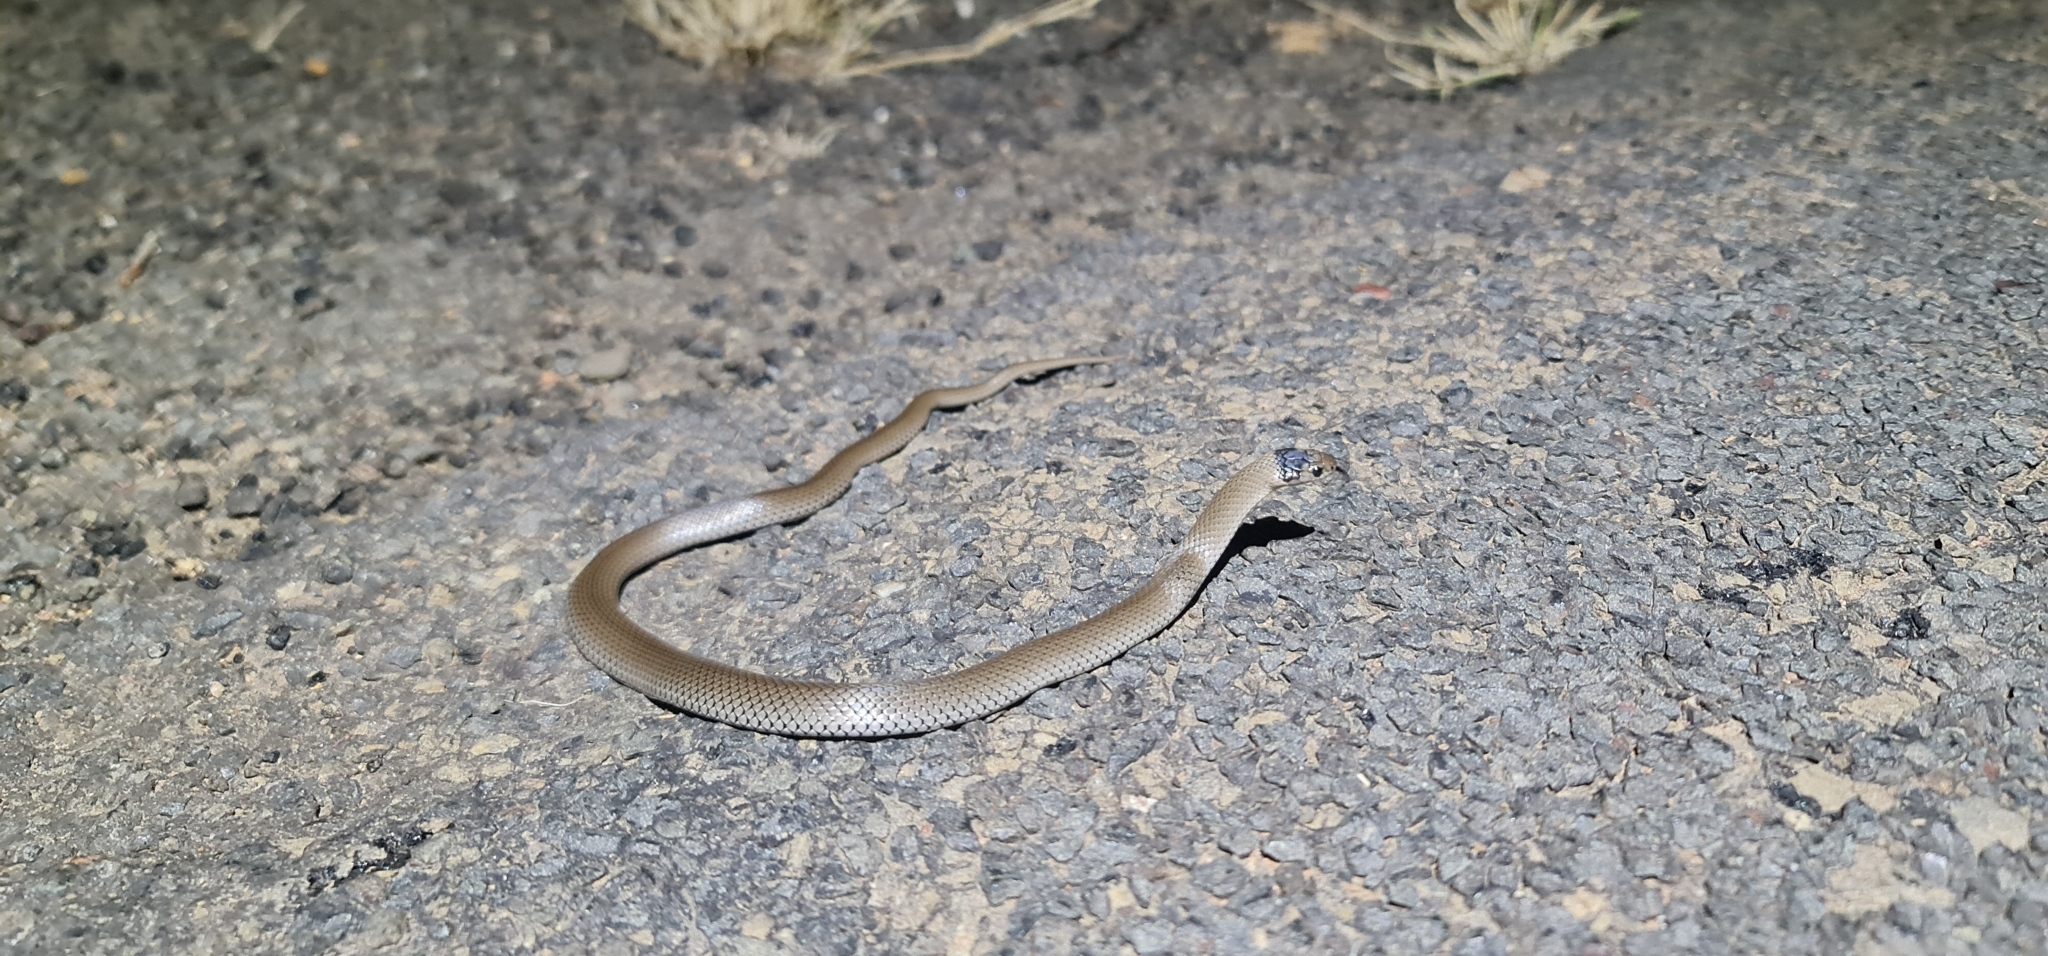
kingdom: Animalia
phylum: Chordata
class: Squamata
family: Elapidae
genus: Hemiaspis
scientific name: Hemiaspis damelii
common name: Grey snake
